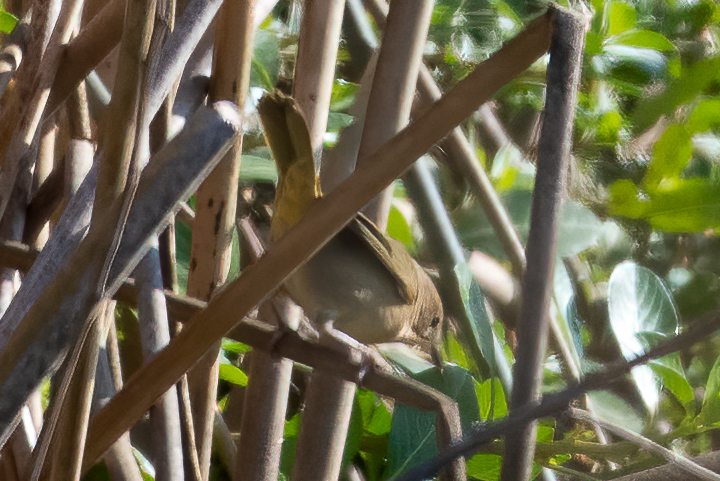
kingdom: Animalia
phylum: Chordata
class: Aves
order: Passeriformes
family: Parulidae
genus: Geothlypis
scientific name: Geothlypis trichas
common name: Common yellowthroat
